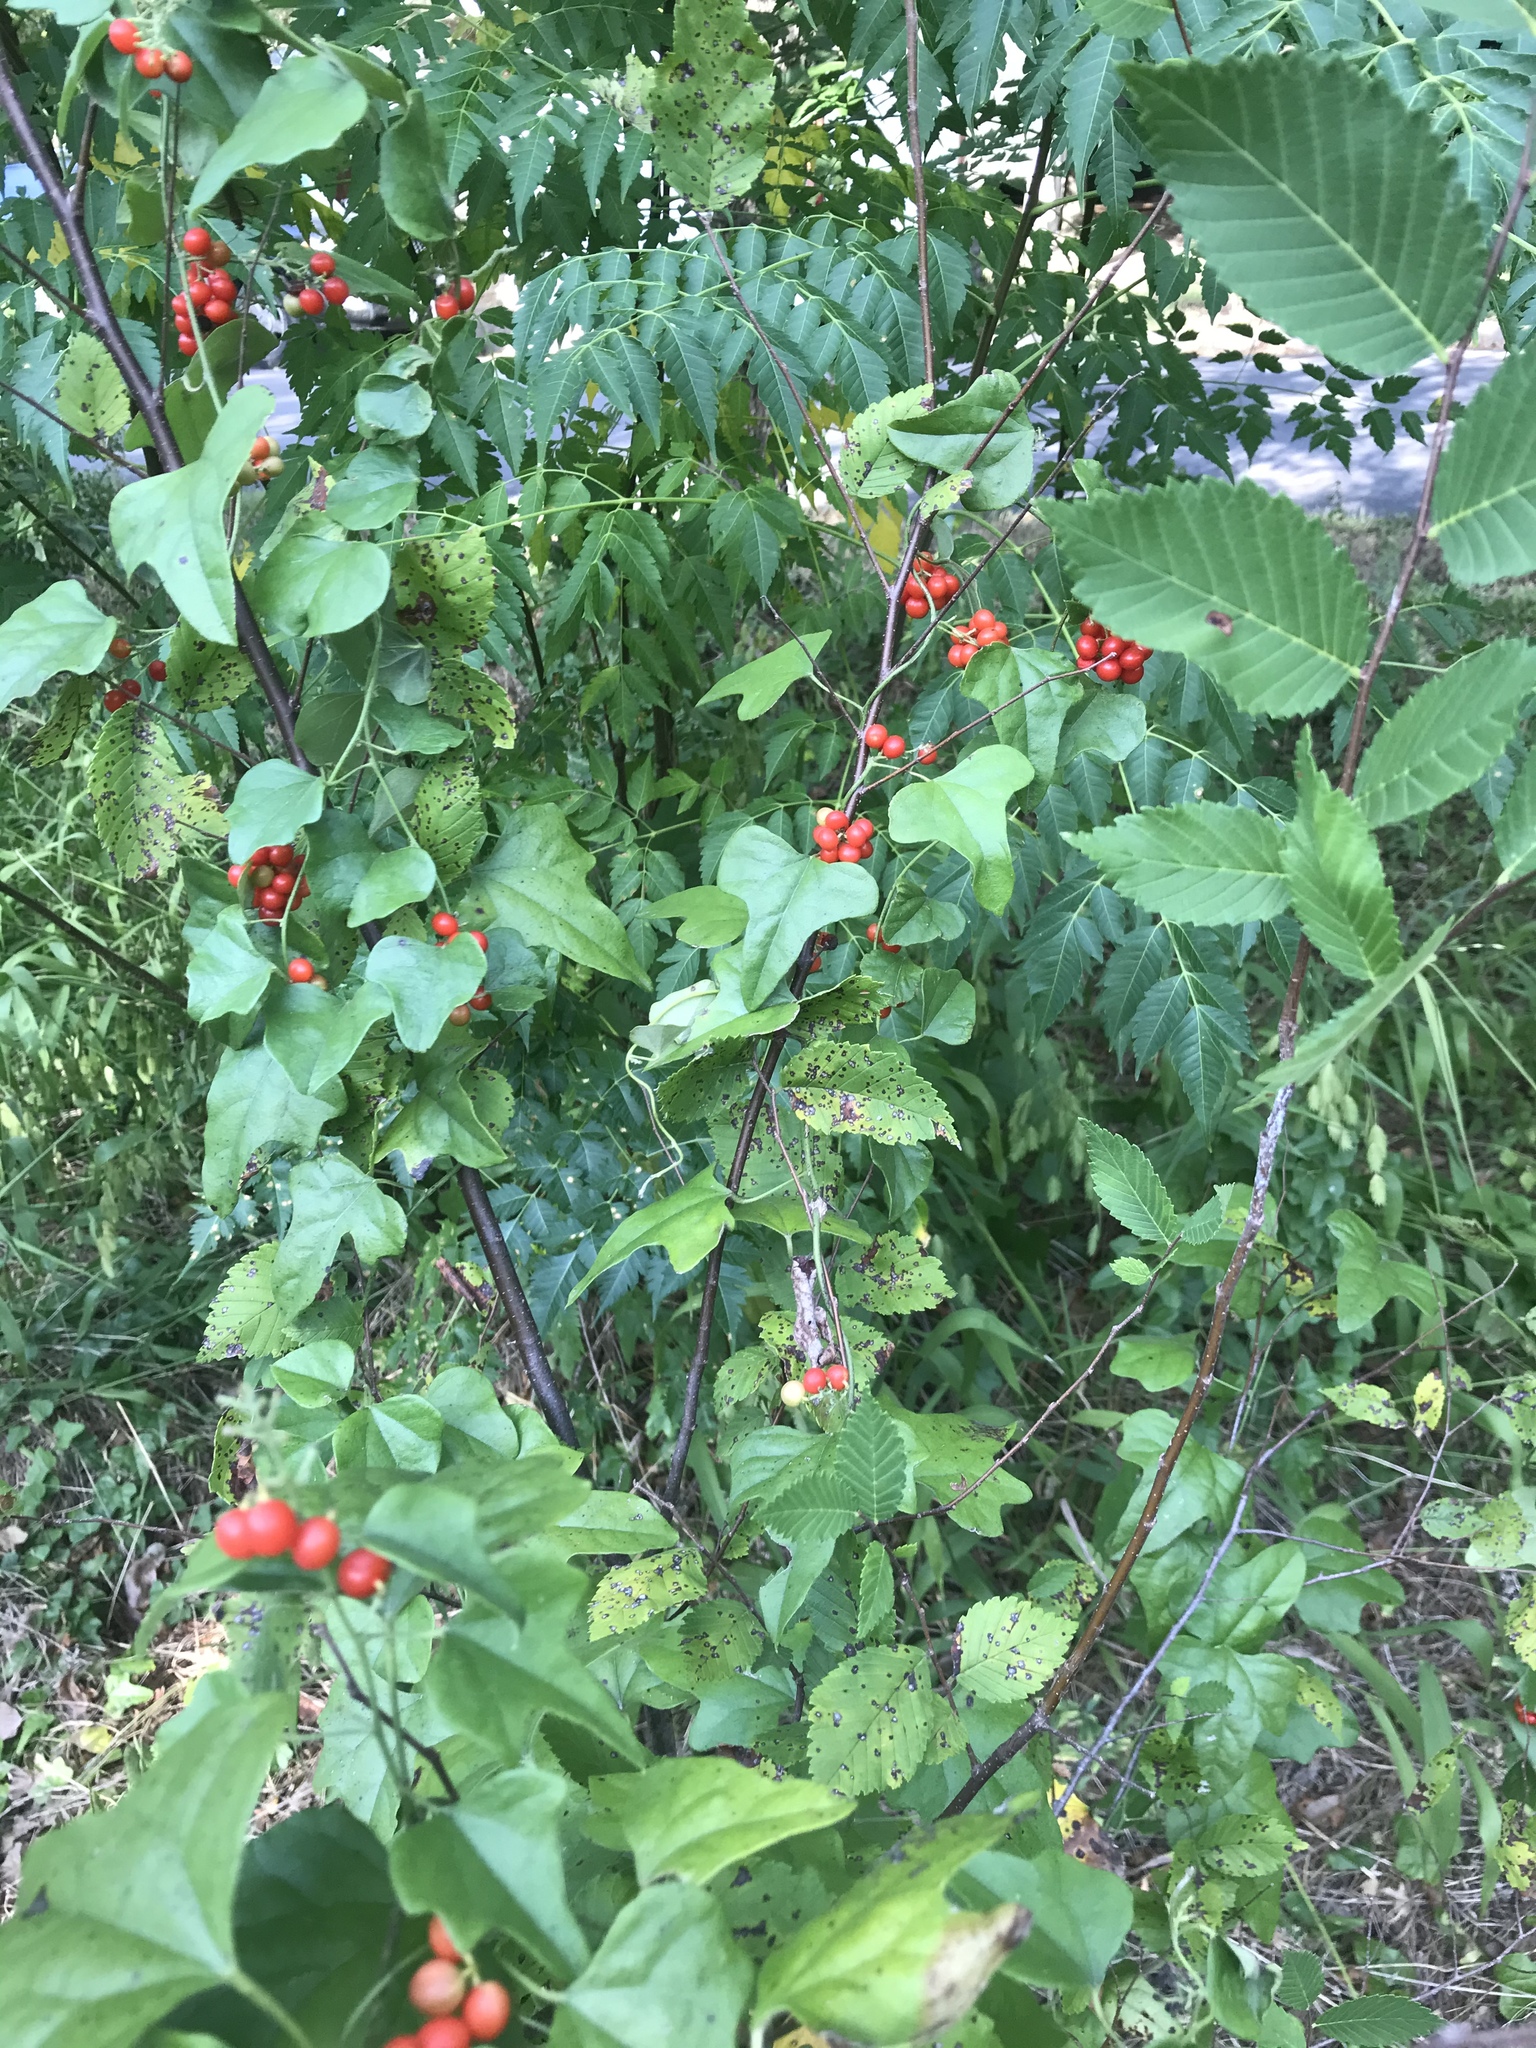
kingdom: Plantae
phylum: Tracheophyta
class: Magnoliopsida
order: Ranunculales
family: Menispermaceae
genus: Cocculus
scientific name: Cocculus carolinus
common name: Carolina moonseed
